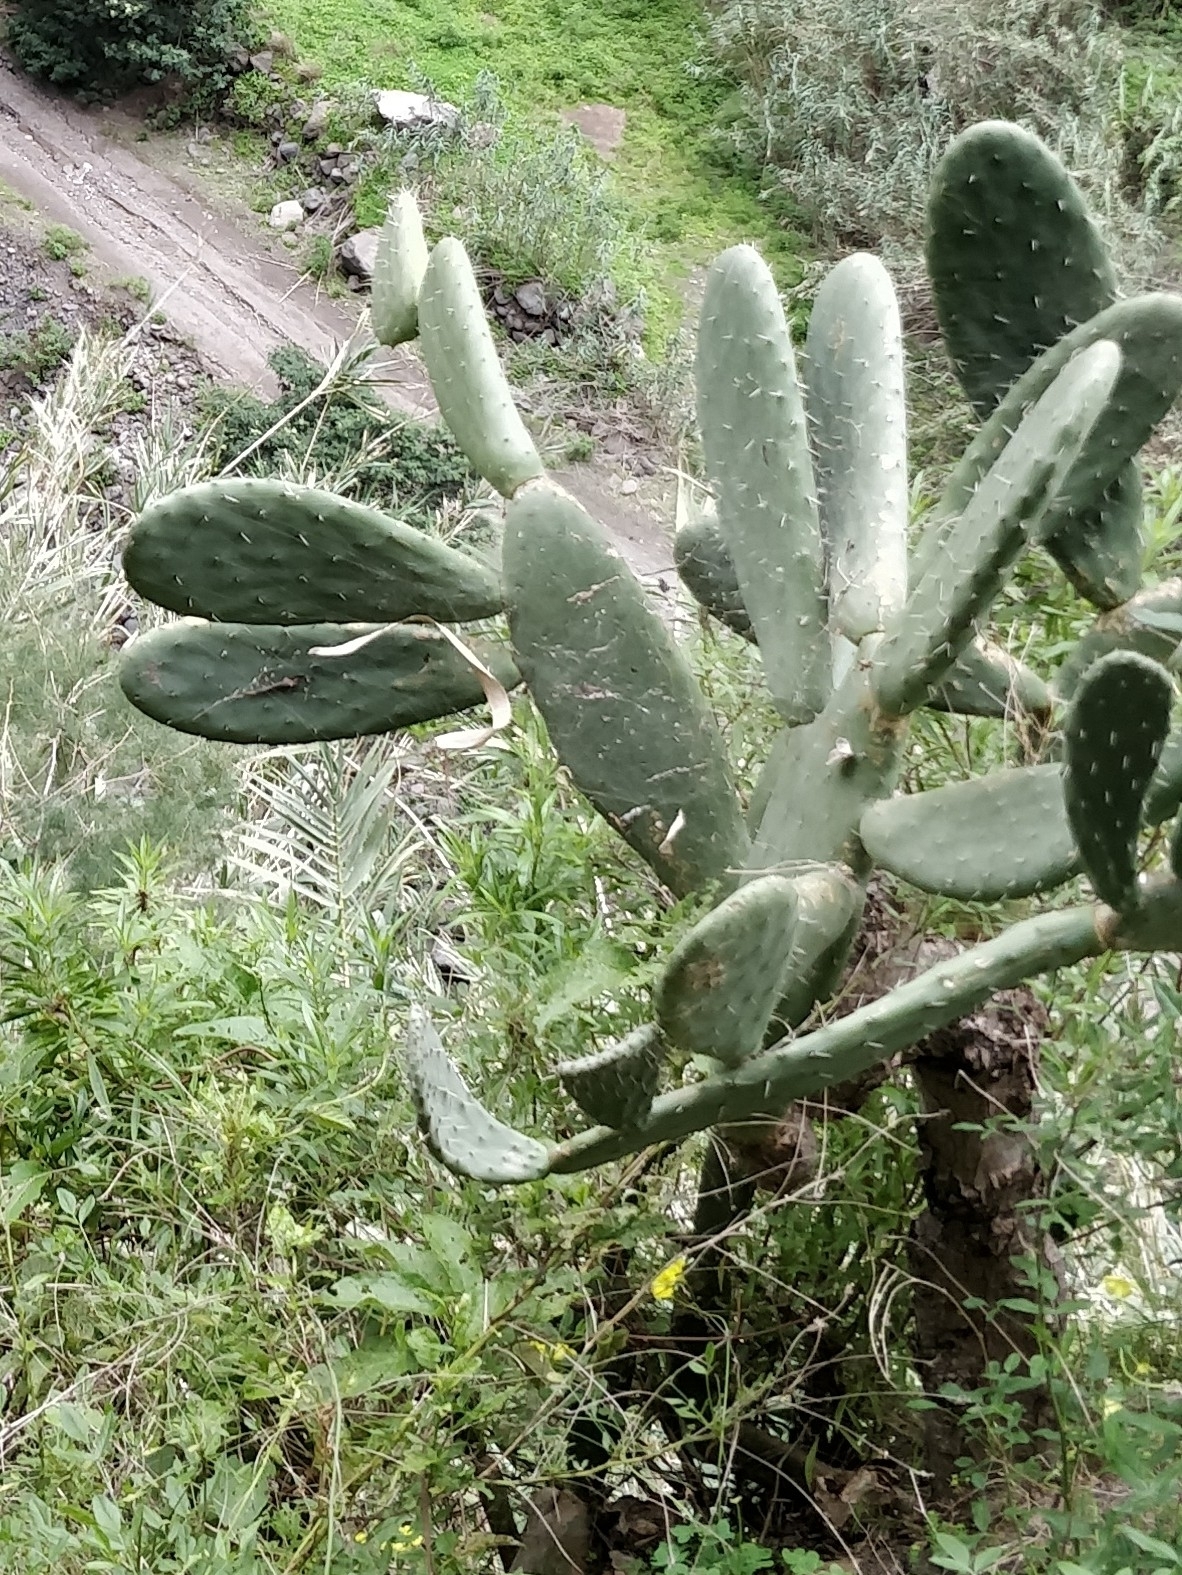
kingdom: Plantae
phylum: Tracheophyta
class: Magnoliopsida
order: Caryophyllales
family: Cactaceae
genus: Opuntia
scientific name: Opuntia ficus-indica
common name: Barbary fig
